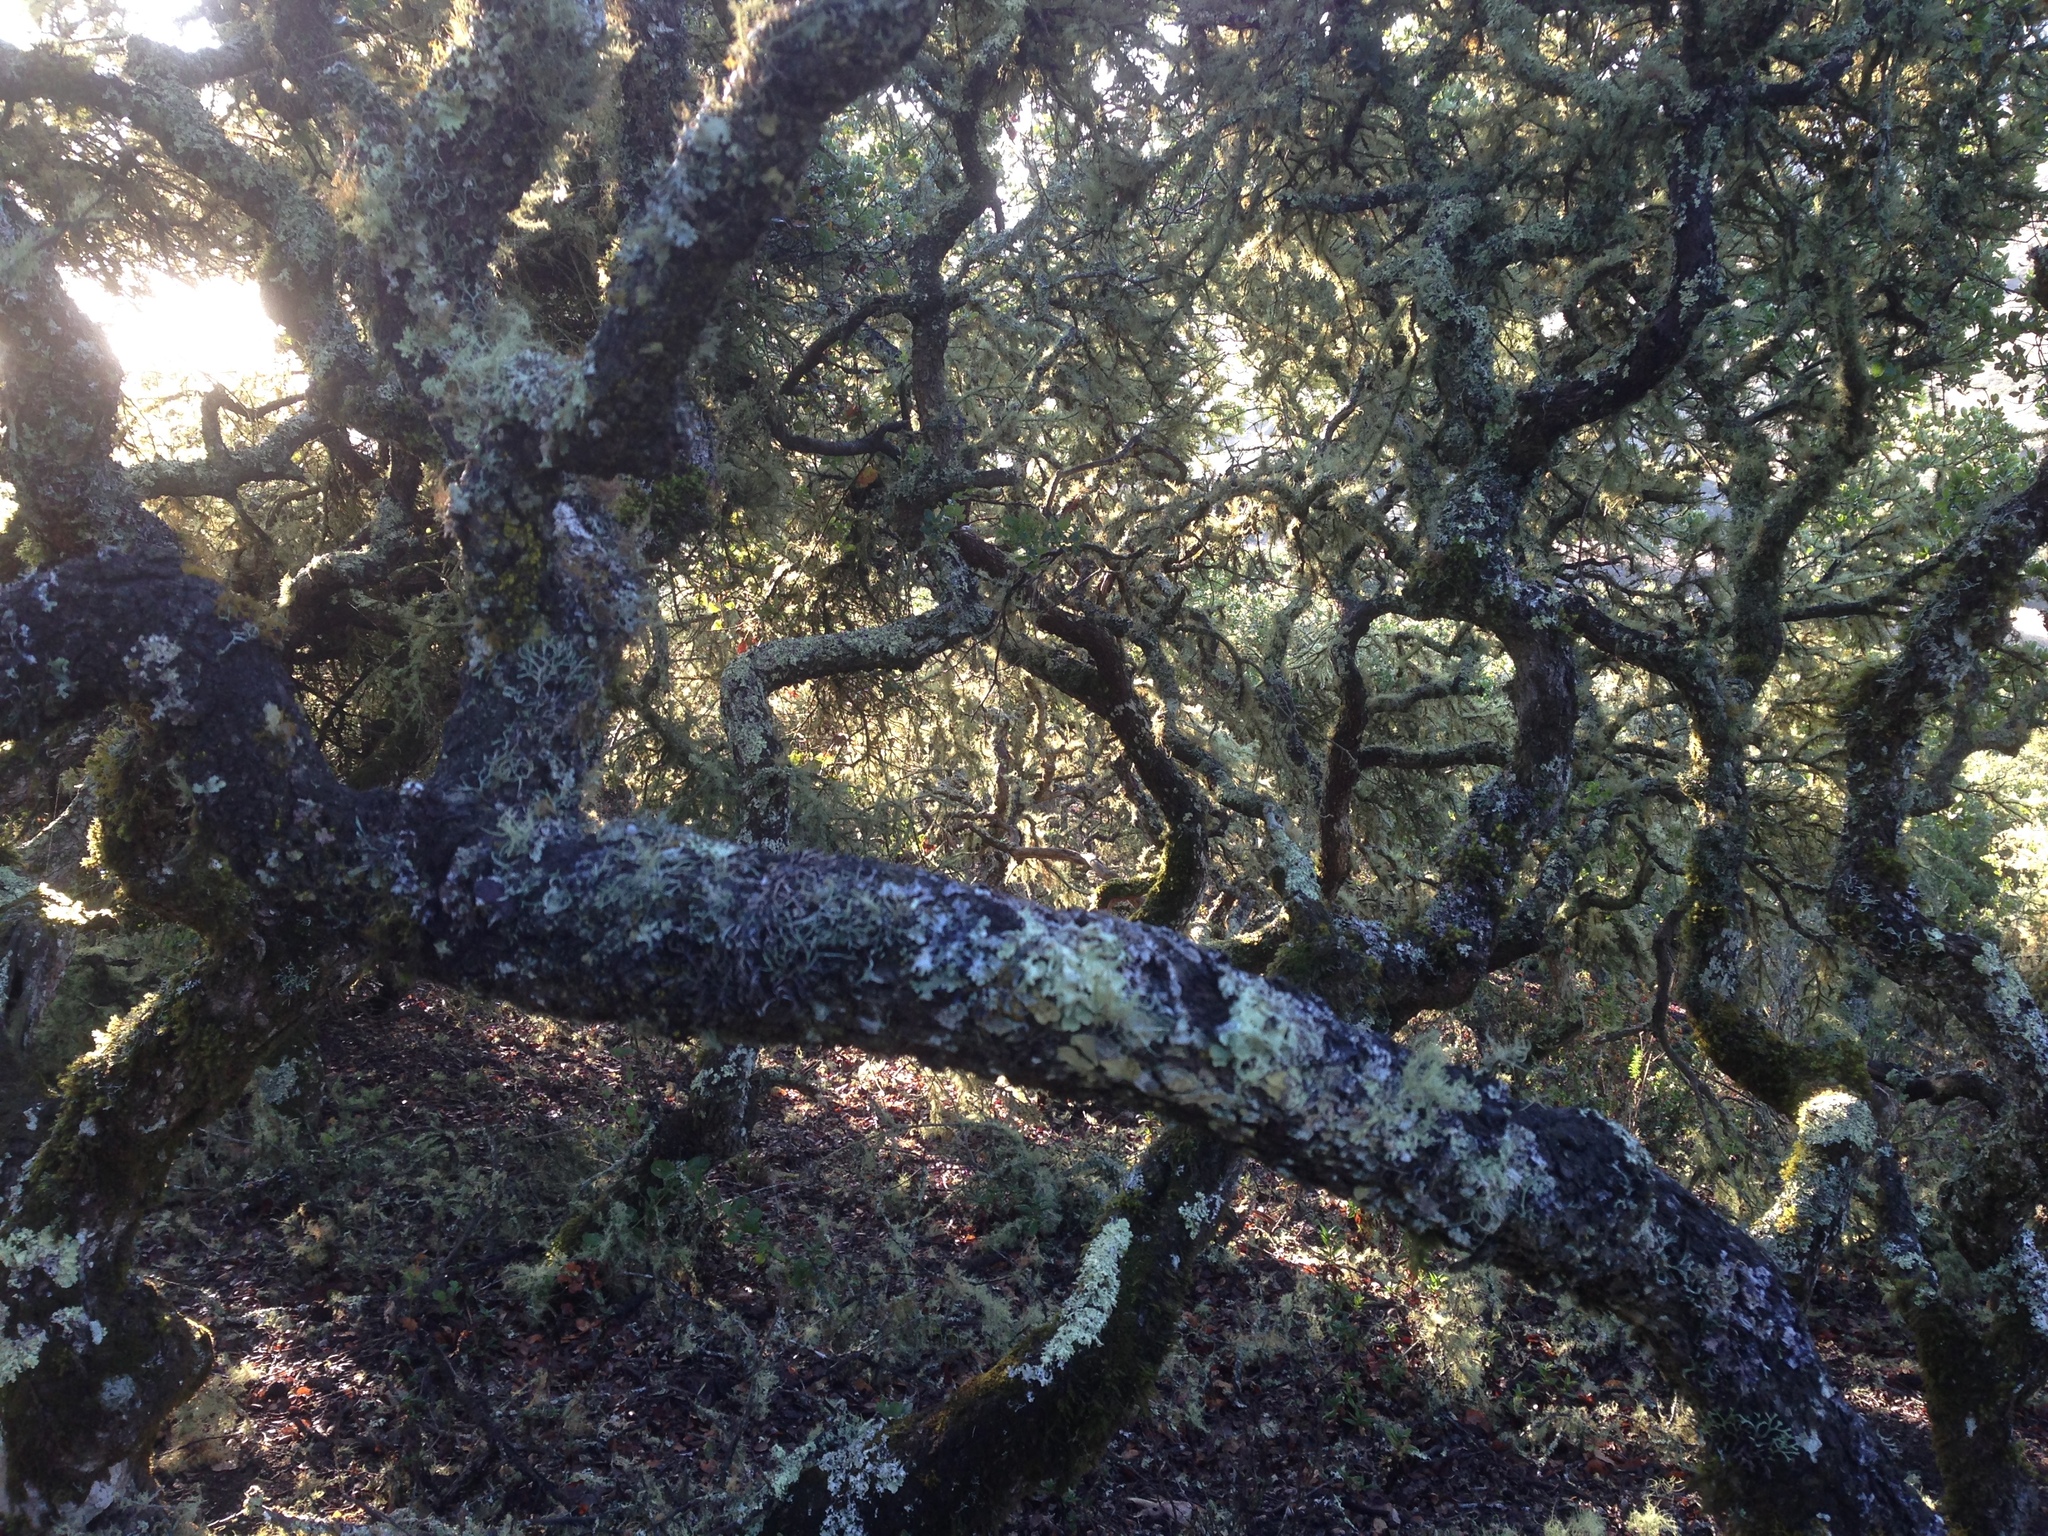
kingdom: Plantae
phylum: Tracheophyta
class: Magnoliopsida
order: Fagales
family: Fagaceae
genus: Quercus
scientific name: Quercus pacifica
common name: Channel island scrub oak
